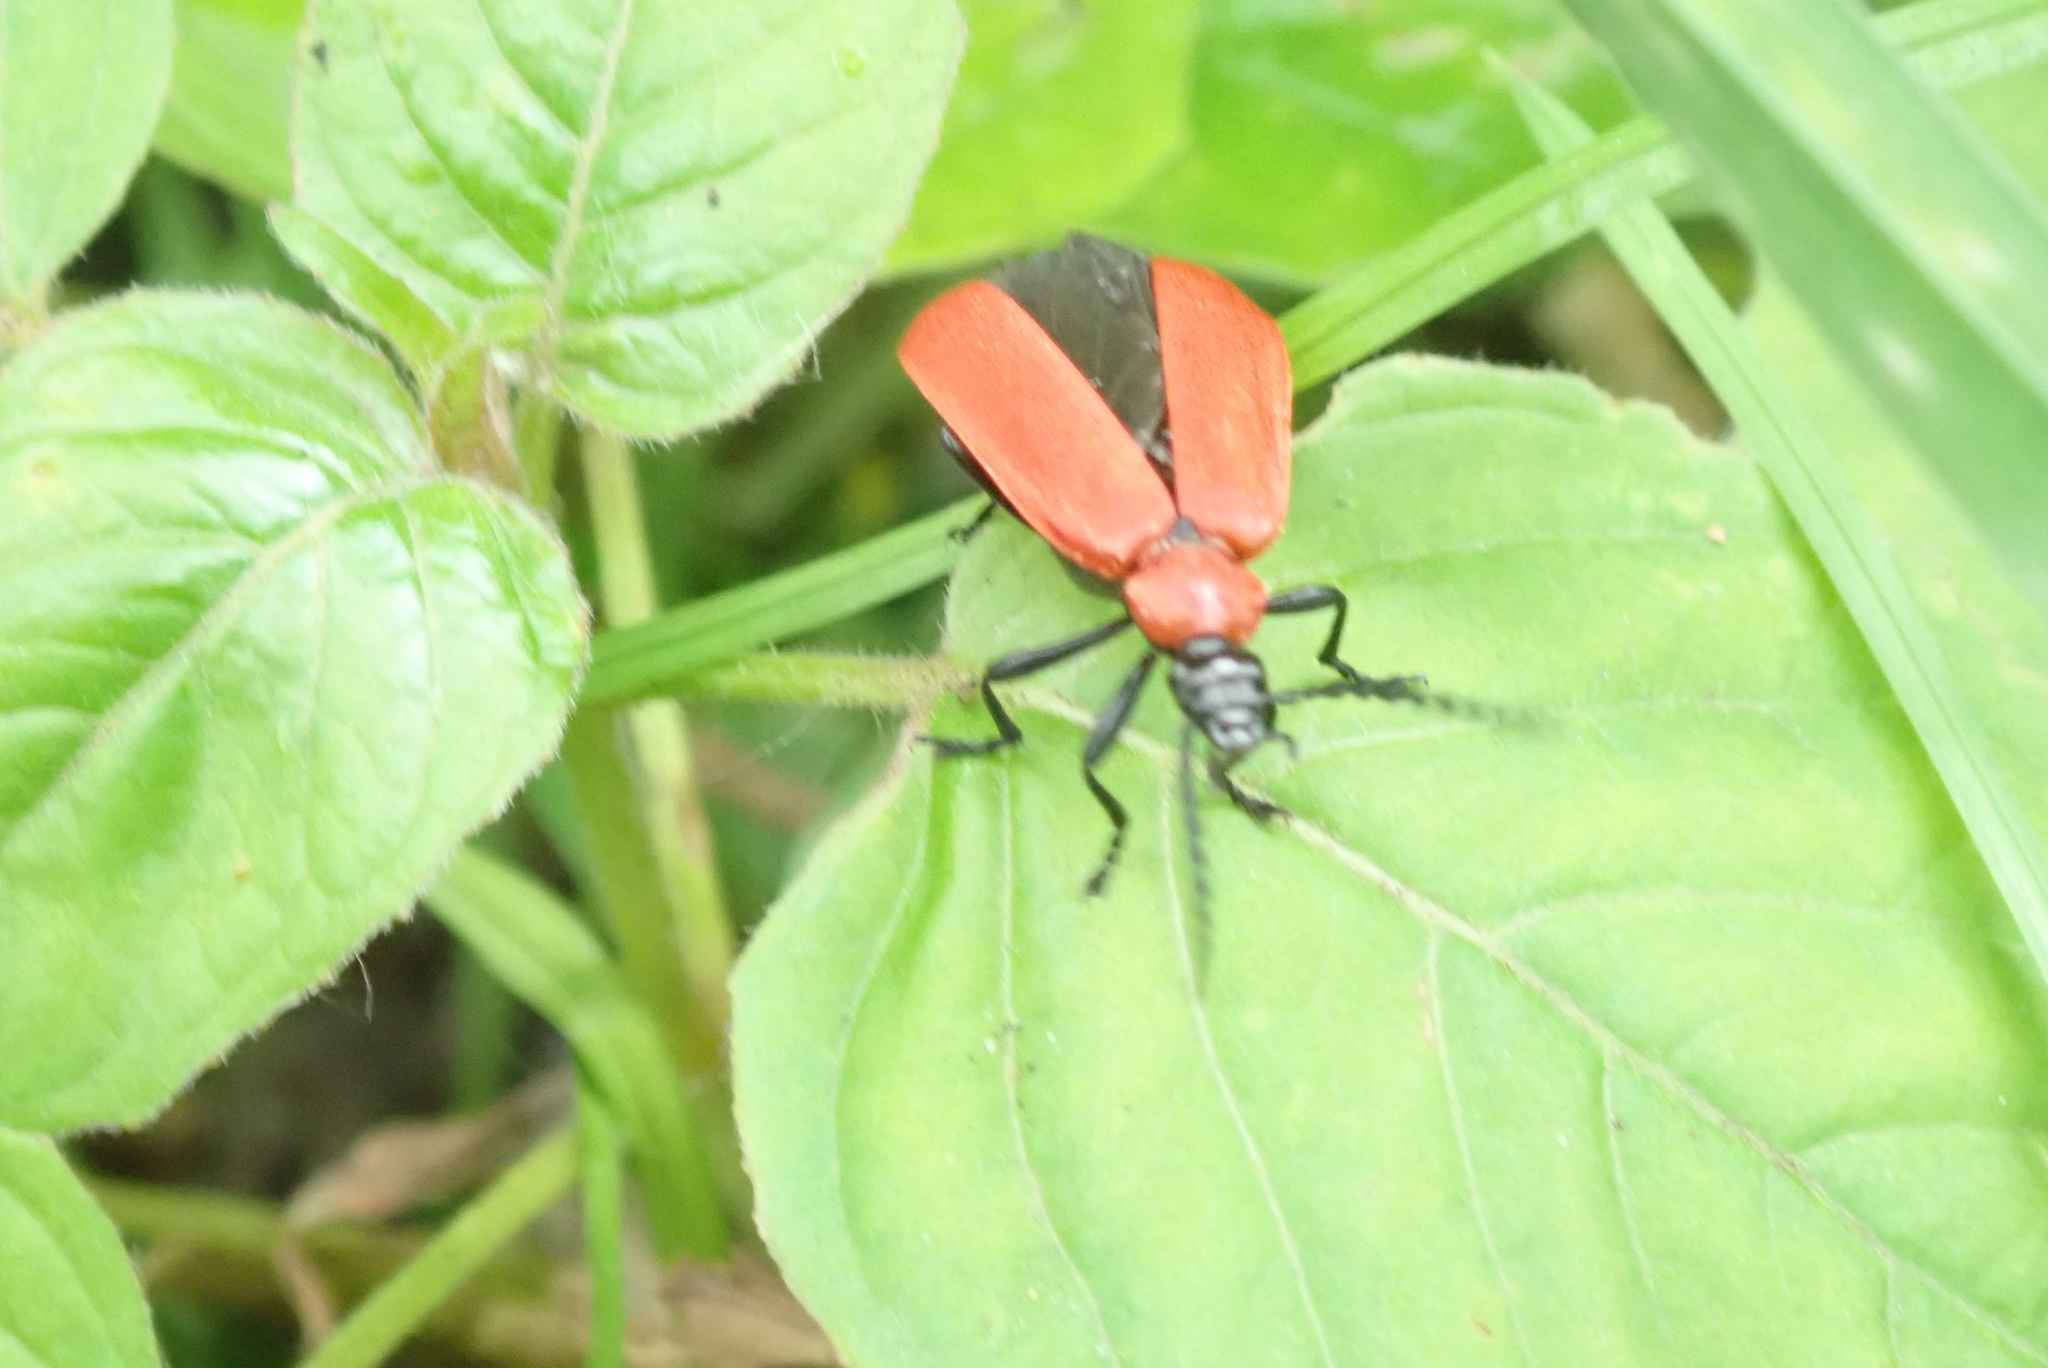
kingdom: Animalia
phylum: Arthropoda
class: Insecta
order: Coleoptera
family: Pyrochroidae
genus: Pyrochroa
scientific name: Pyrochroa coccinea
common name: Black-headed cardinal beetle
